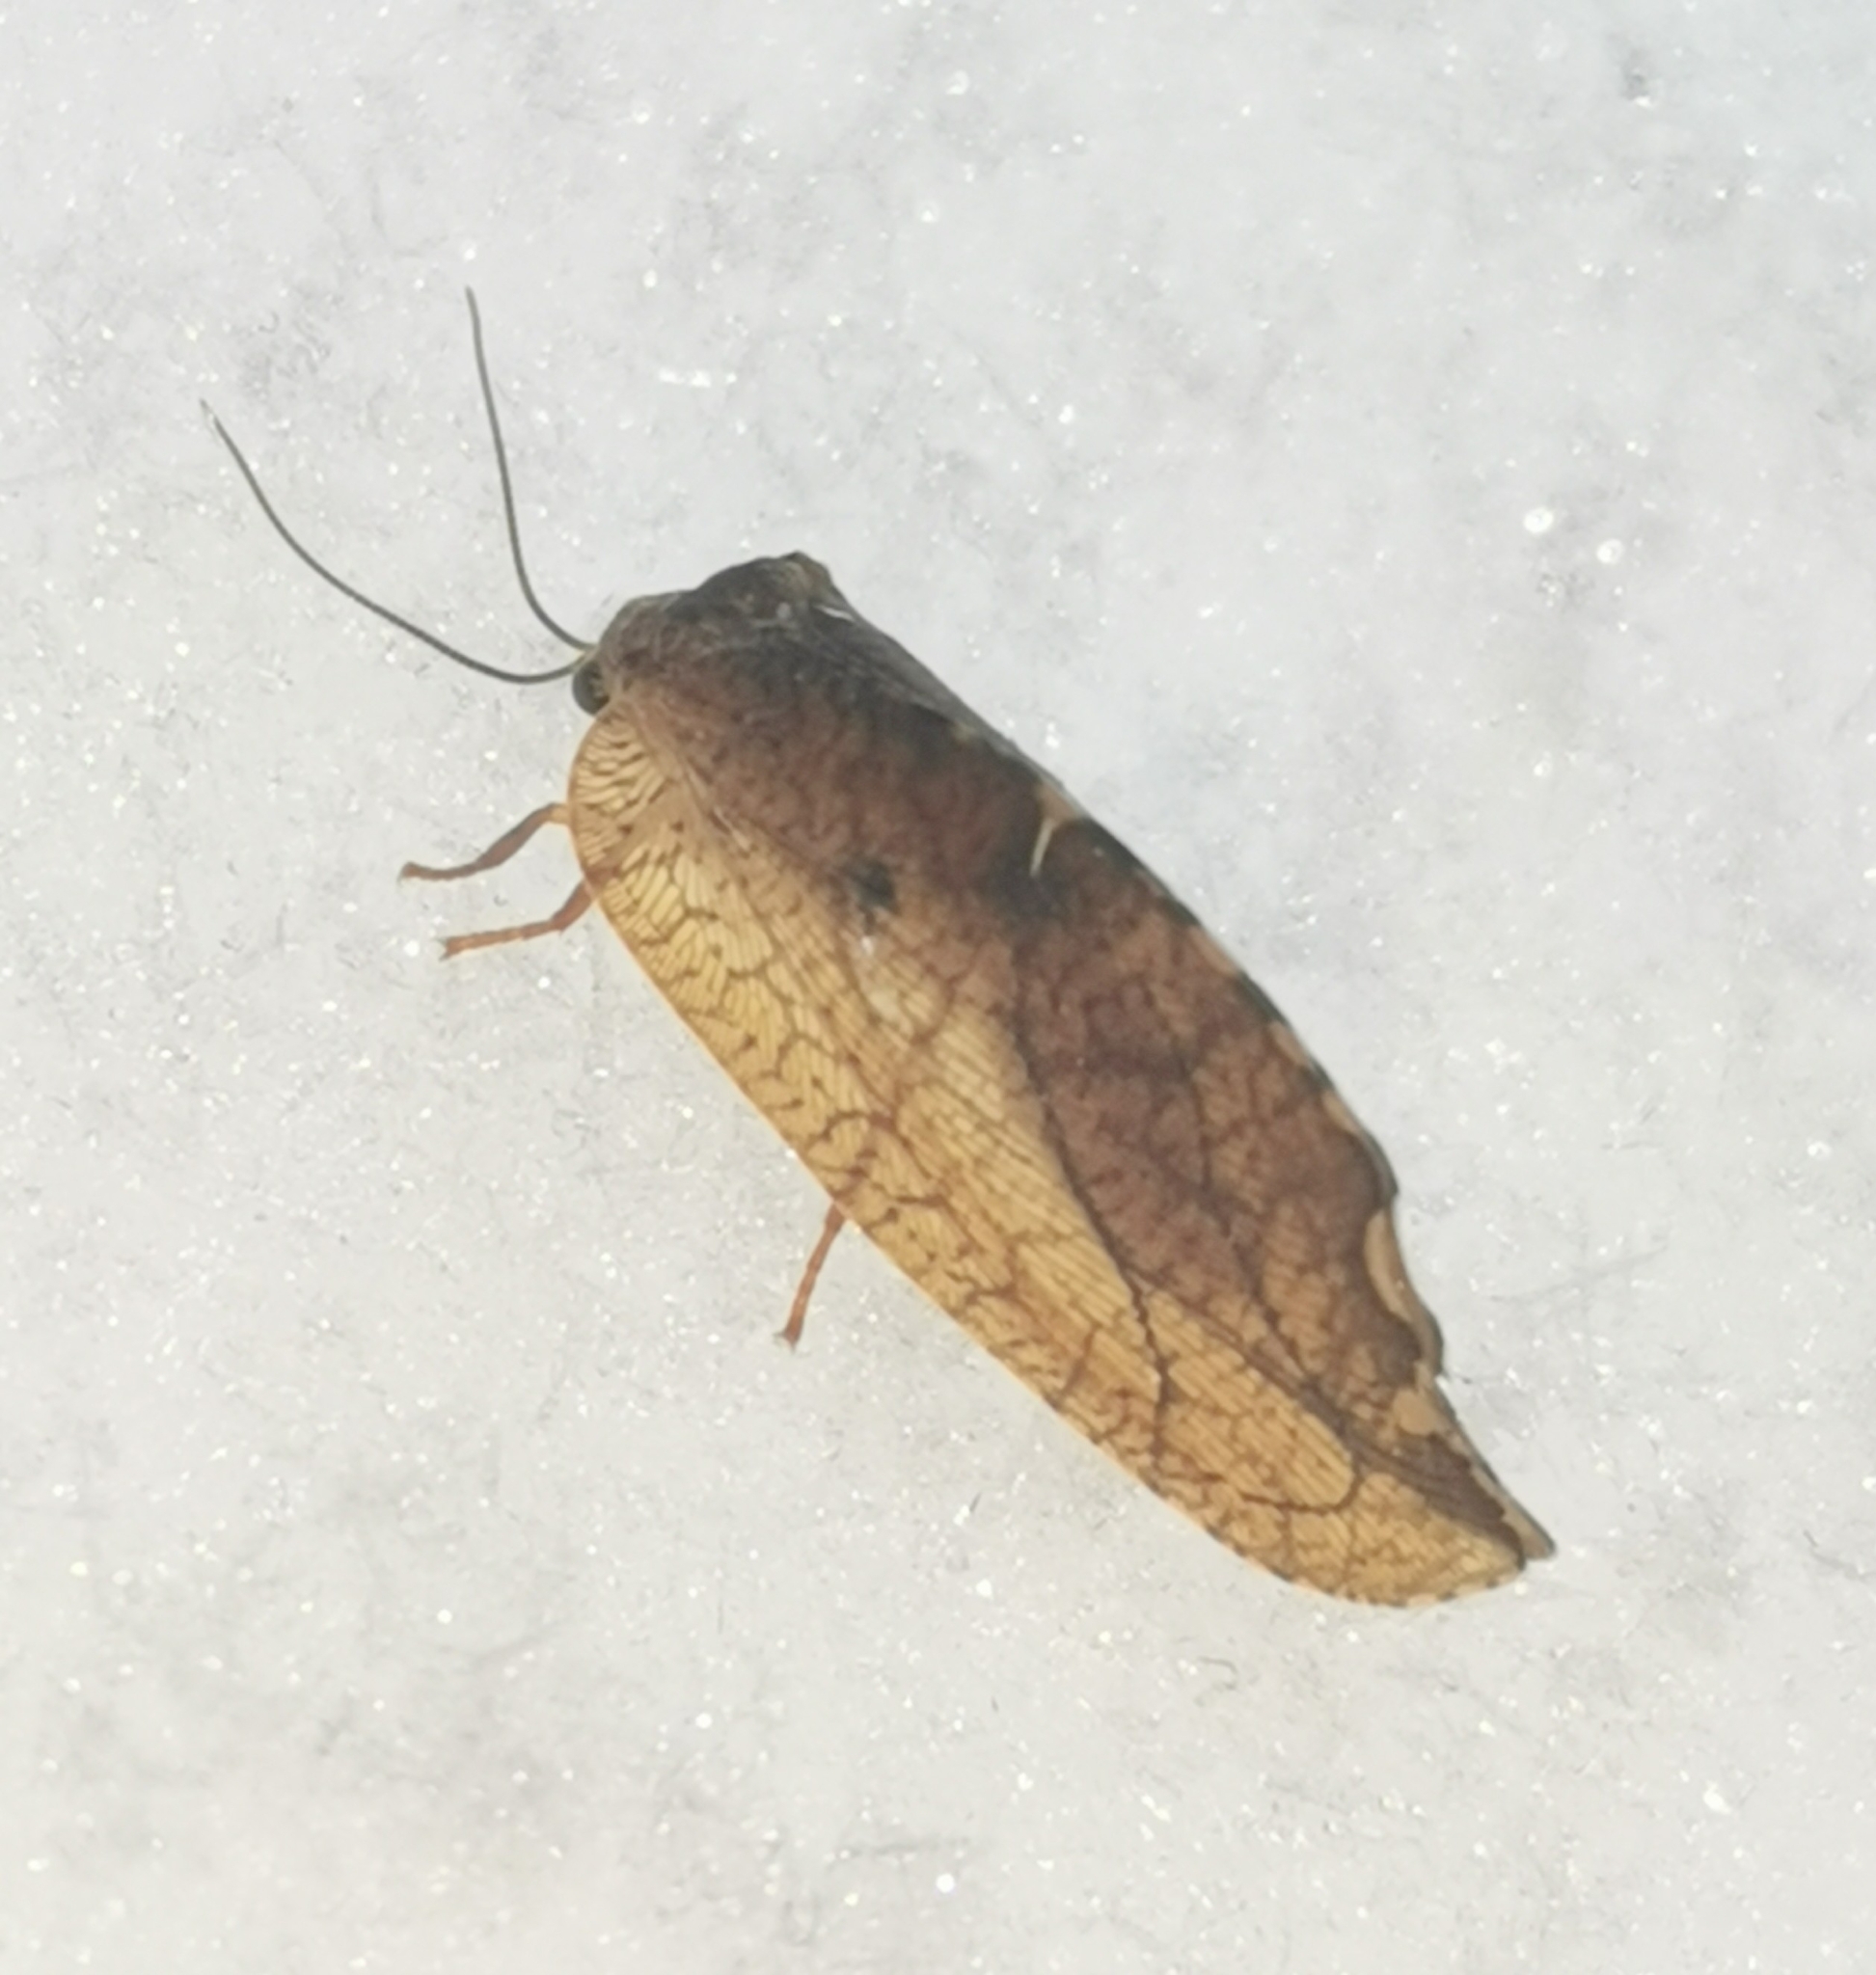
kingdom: Animalia
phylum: Arthropoda
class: Insecta
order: Neuroptera
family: Hemerobiidae
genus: Drepanepteryx
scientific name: Drepanepteryx phalaenoides
